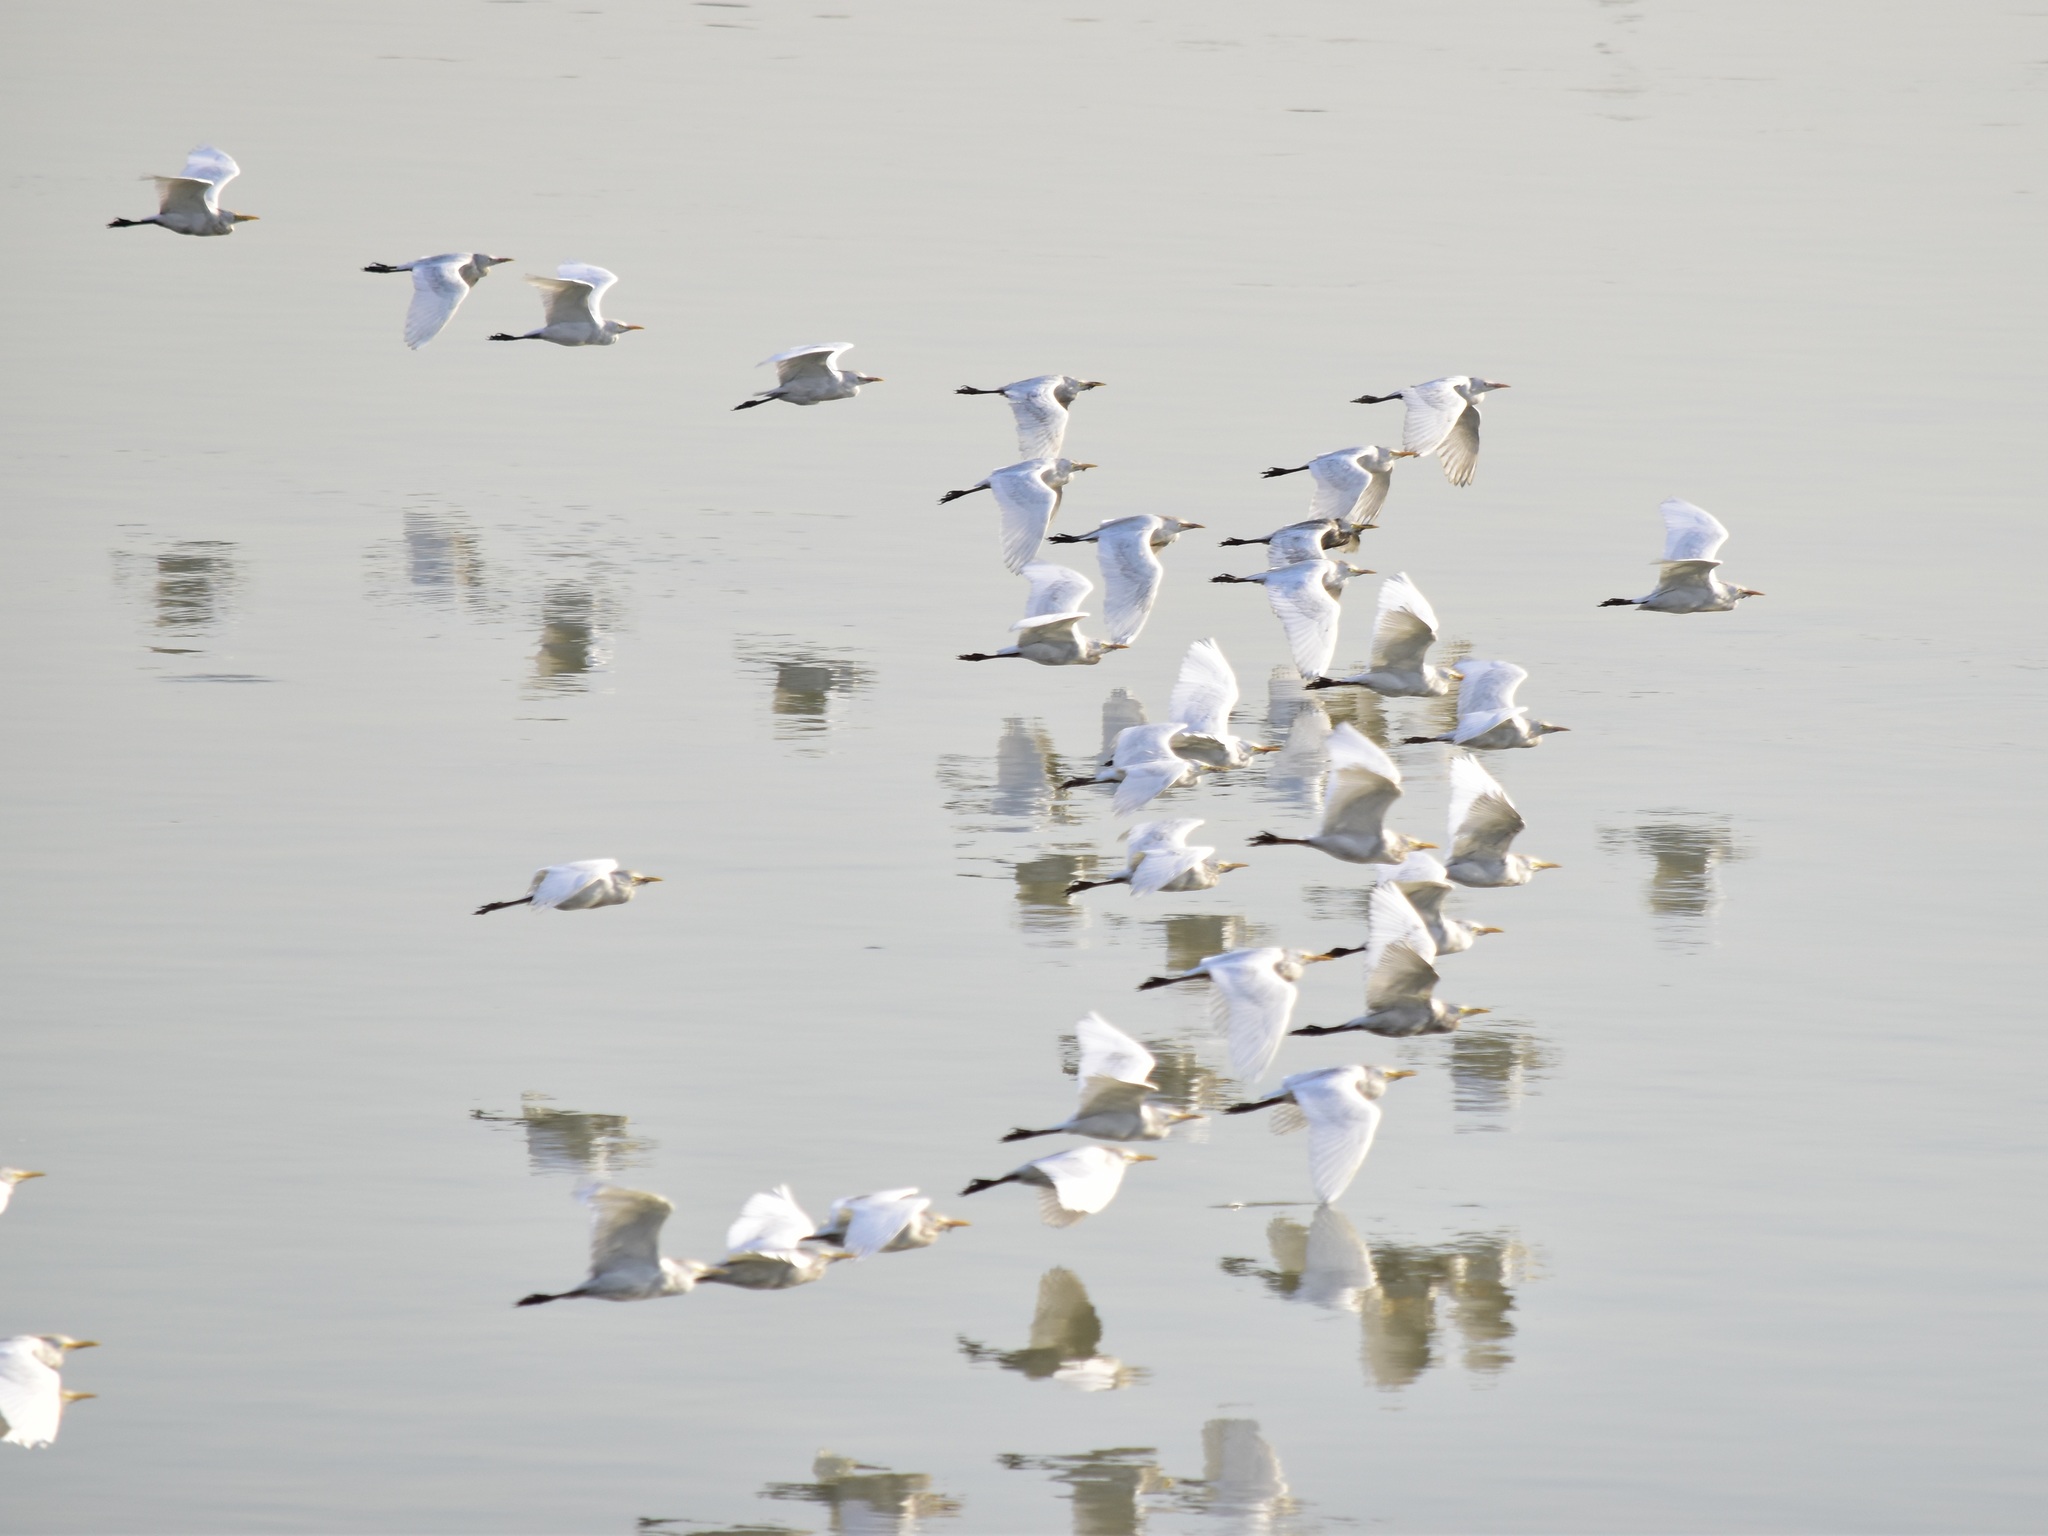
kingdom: Animalia
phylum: Chordata
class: Aves
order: Pelecaniformes
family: Ardeidae
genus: Bubulcus
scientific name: Bubulcus ibis
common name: Cattle egret
